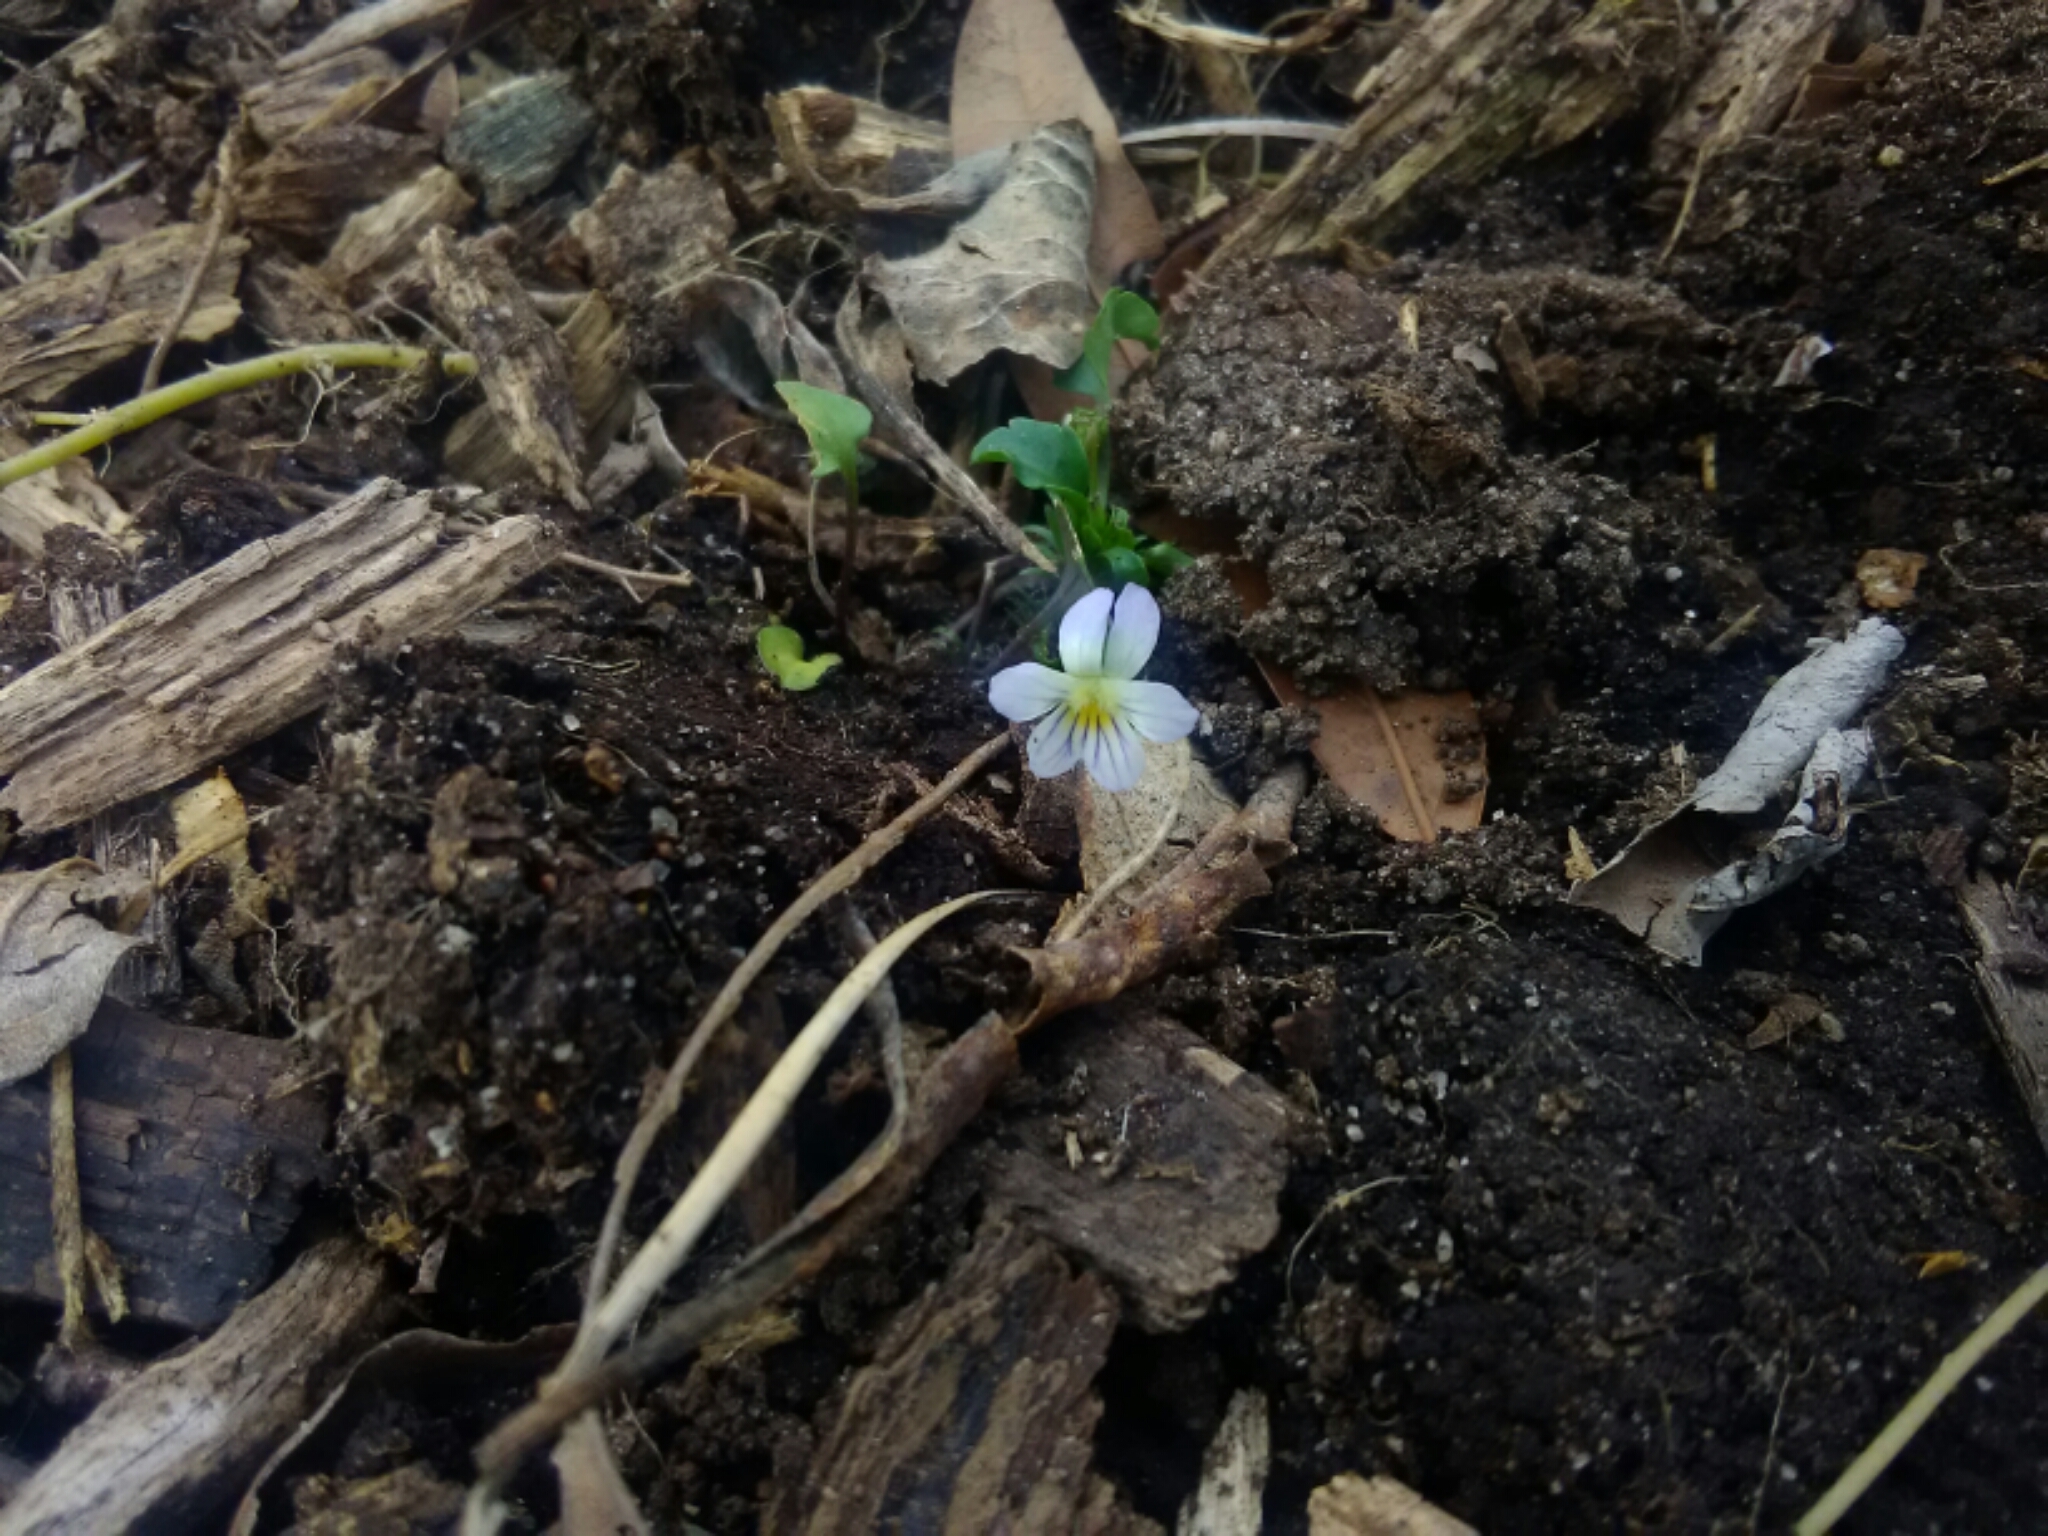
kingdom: Plantae
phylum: Tracheophyta
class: Magnoliopsida
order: Malpighiales
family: Violaceae
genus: Viola
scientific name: Viola rafinesquei
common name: American field pansy
